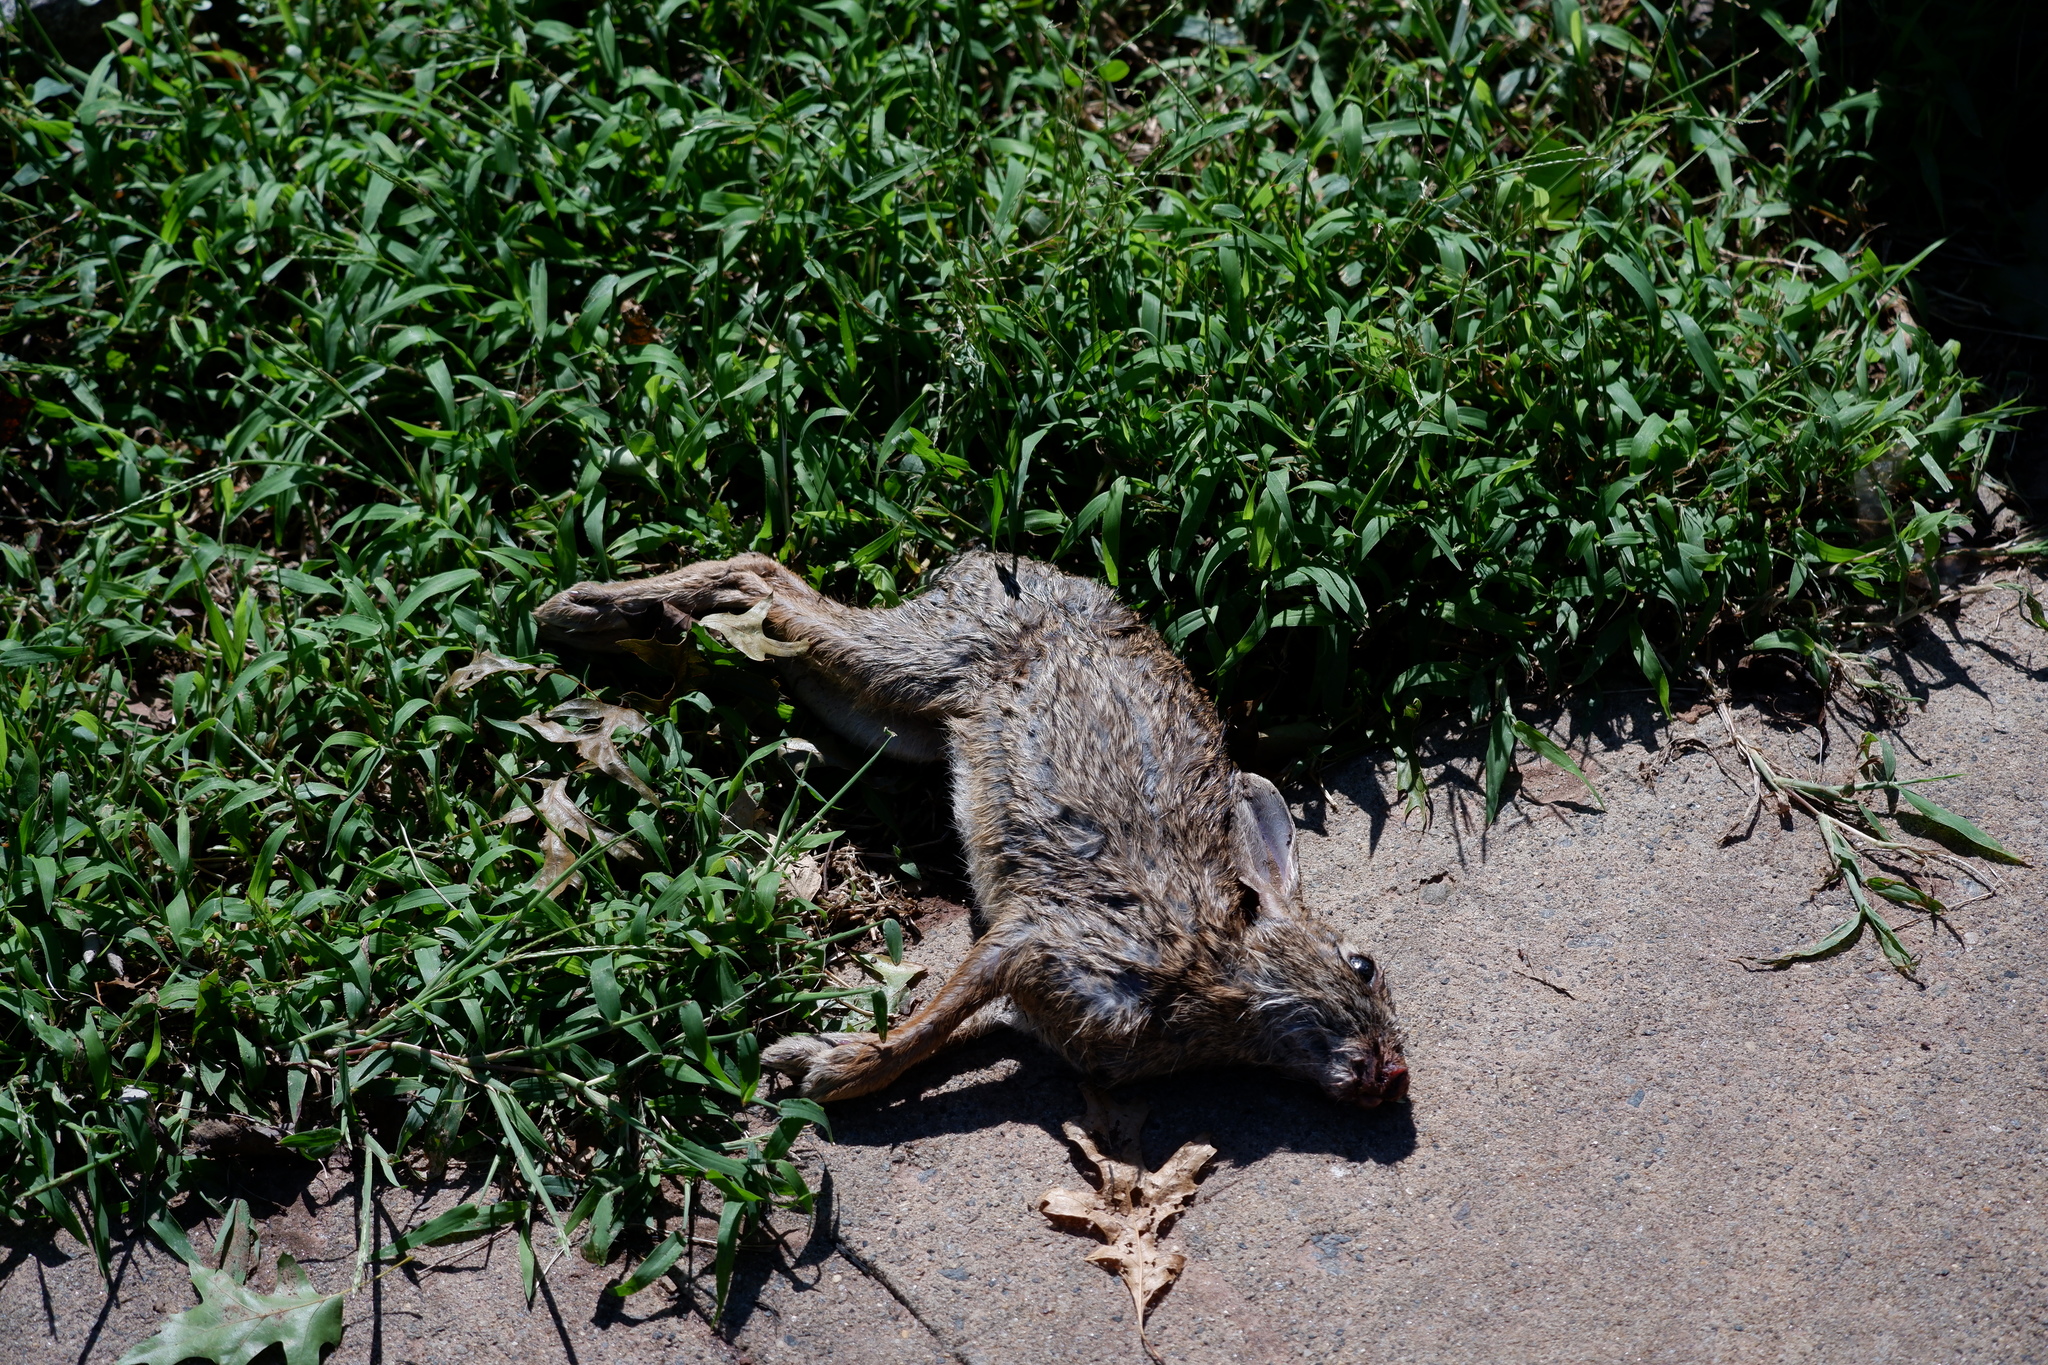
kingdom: Animalia
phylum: Chordata
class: Mammalia
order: Lagomorpha
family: Leporidae
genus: Sylvilagus
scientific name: Sylvilagus floridanus
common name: Eastern cottontail
